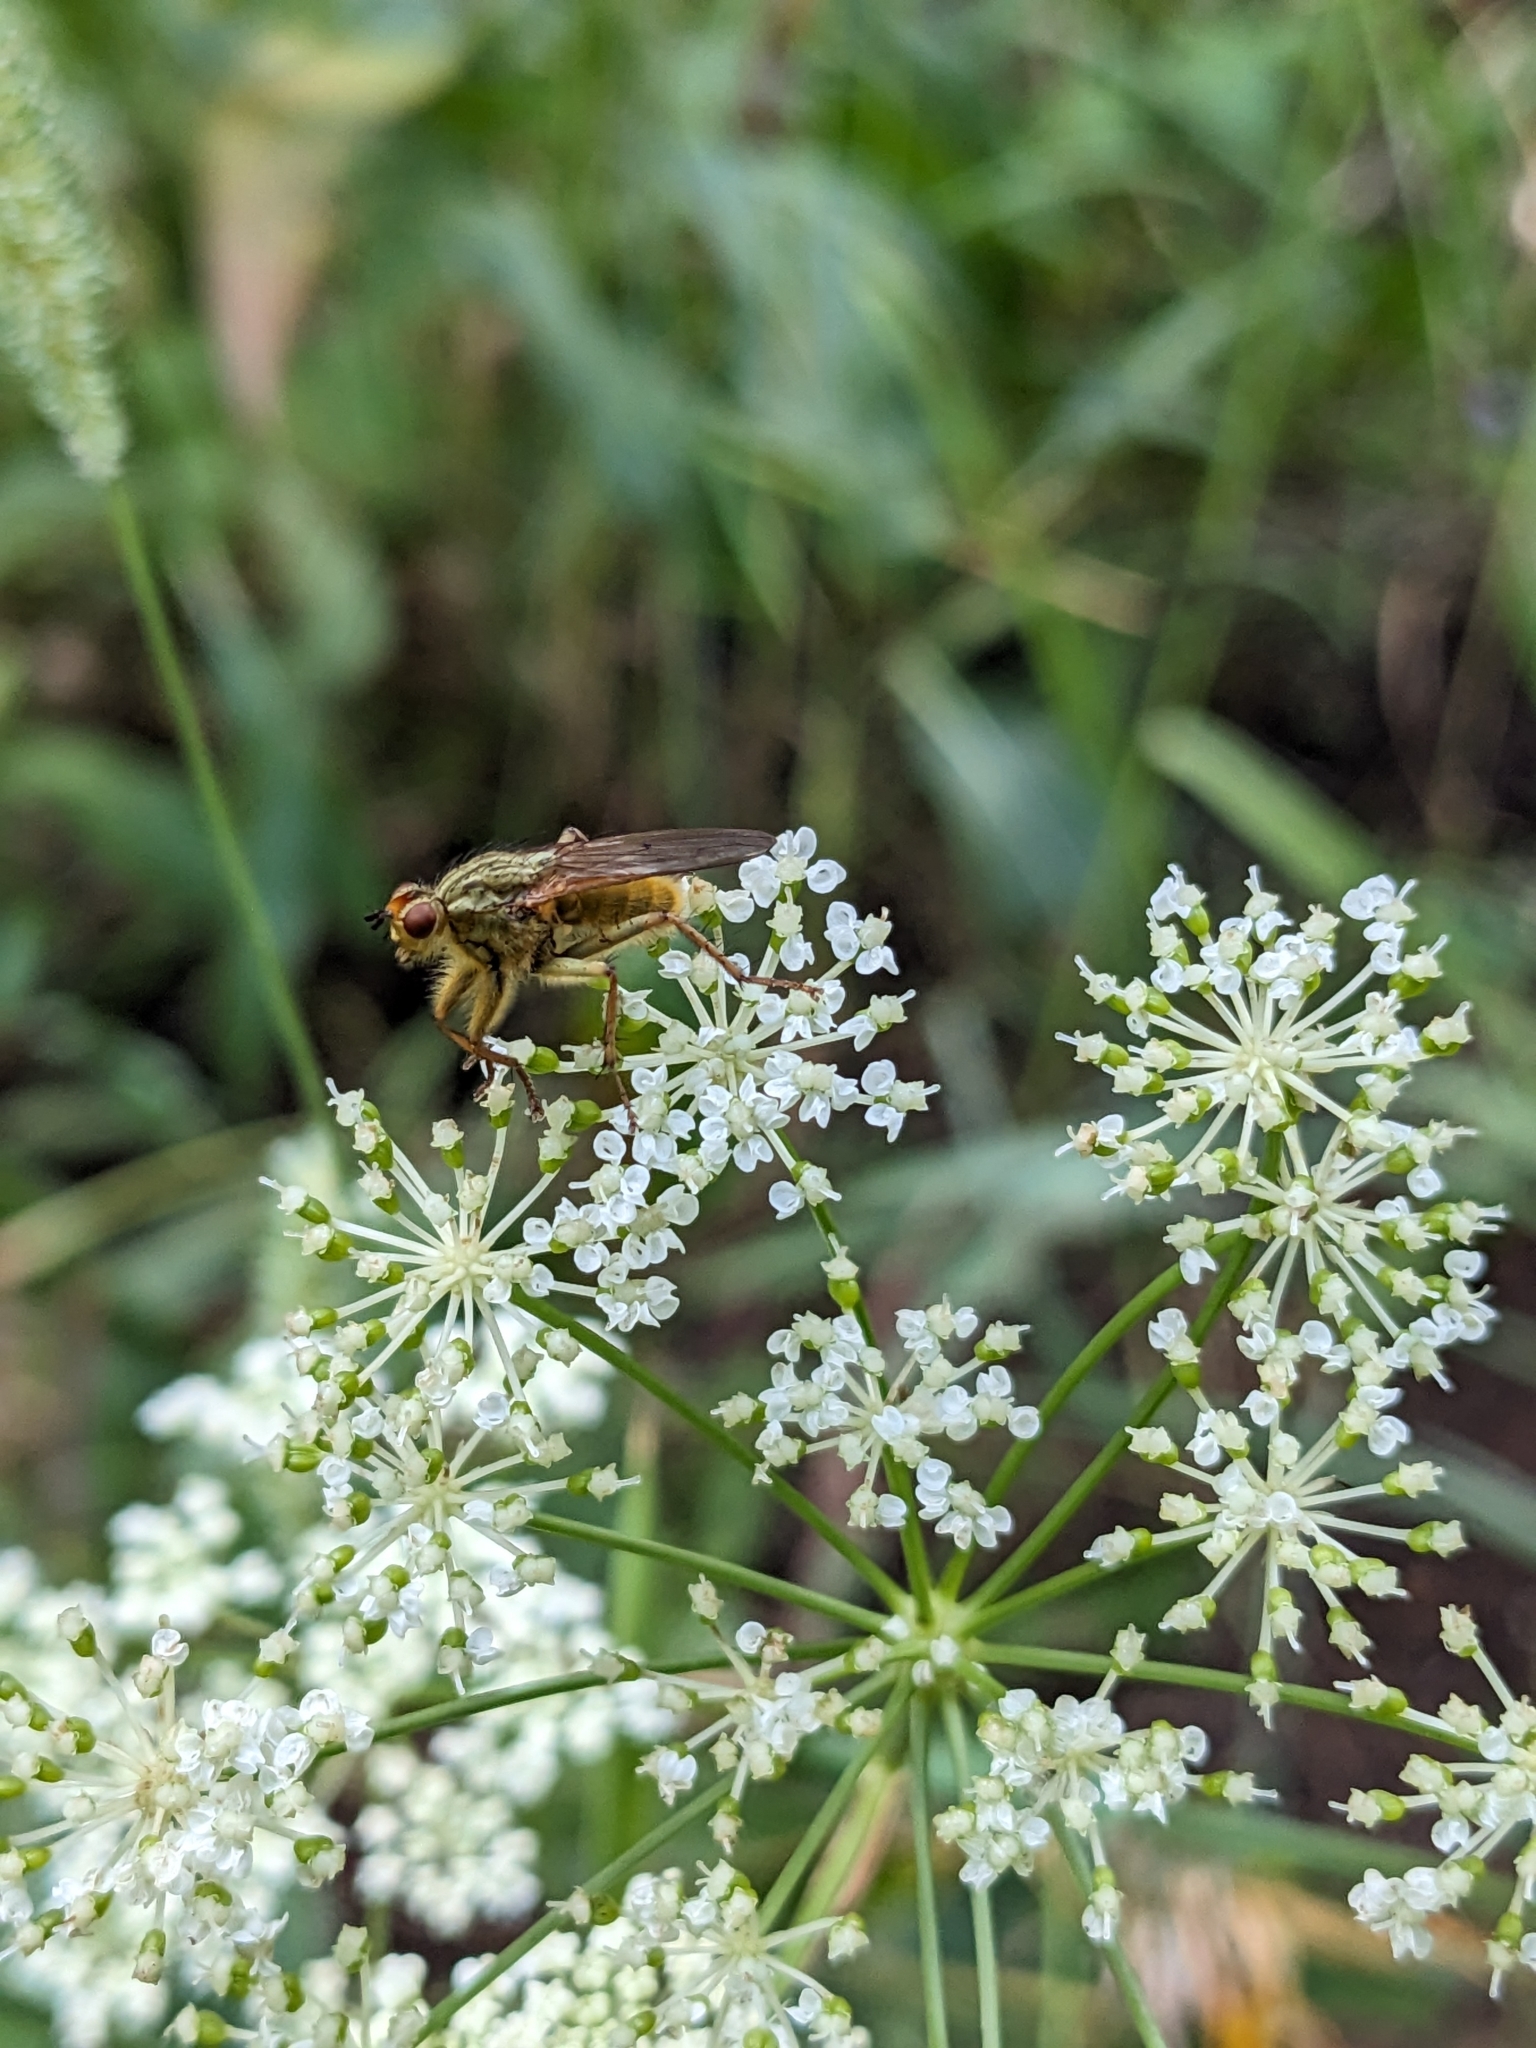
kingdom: Plantae
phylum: Tracheophyta
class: Magnoliopsida
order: Apiales
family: Apiaceae
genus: Perideridia
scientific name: Perideridia gairdneri
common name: False caraway
